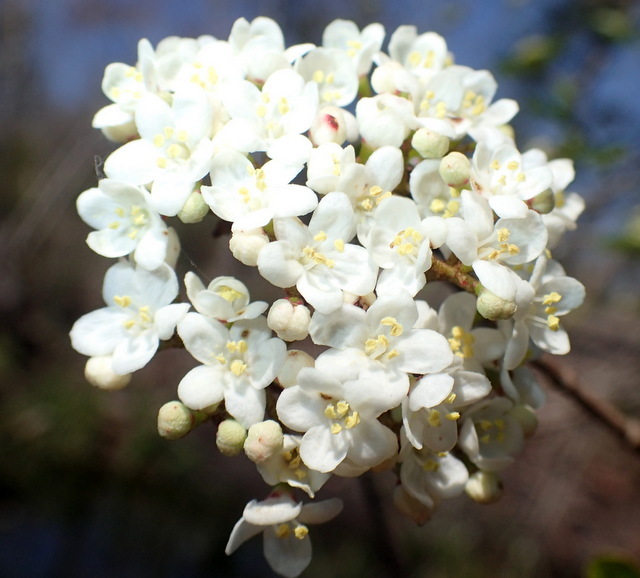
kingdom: Plantae
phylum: Tracheophyta
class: Magnoliopsida
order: Dipsacales
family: Viburnaceae
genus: Viburnum
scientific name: Viburnum obovatum
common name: Walter's viburnum
